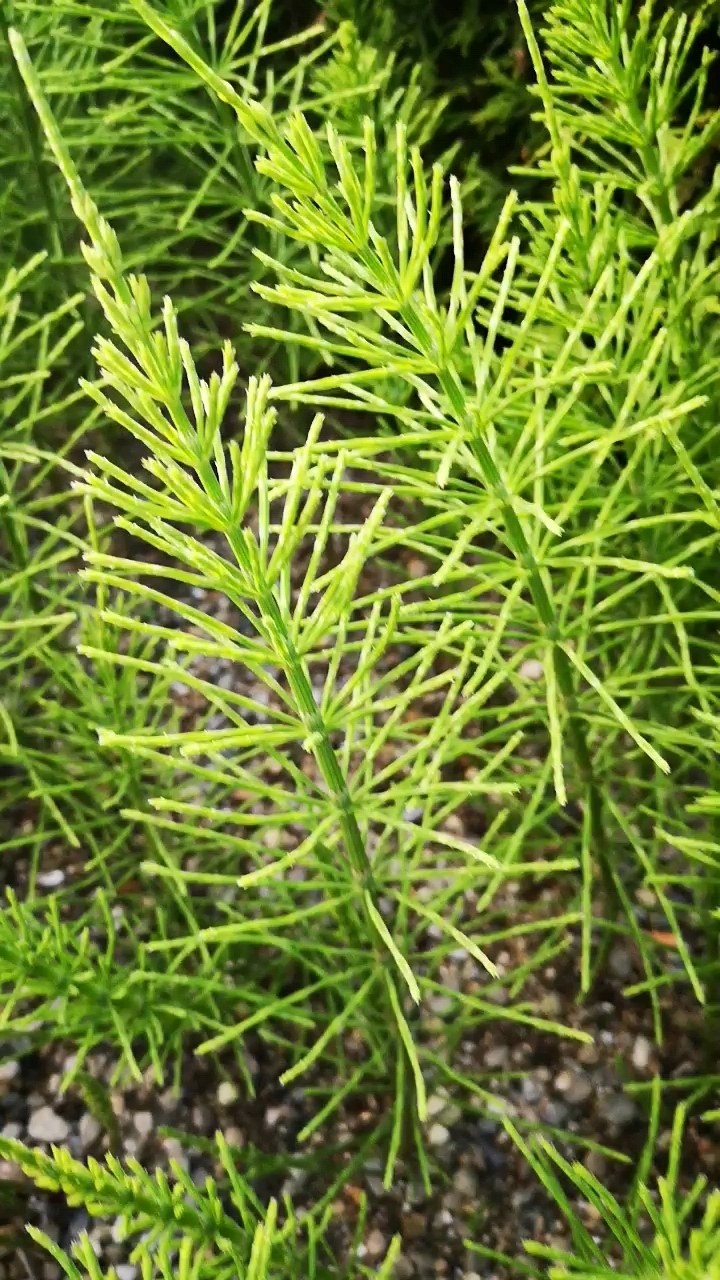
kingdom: Plantae
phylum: Tracheophyta
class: Polypodiopsida
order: Equisetales
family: Equisetaceae
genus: Equisetum
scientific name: Equisetum arvense
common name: Field horsetail
